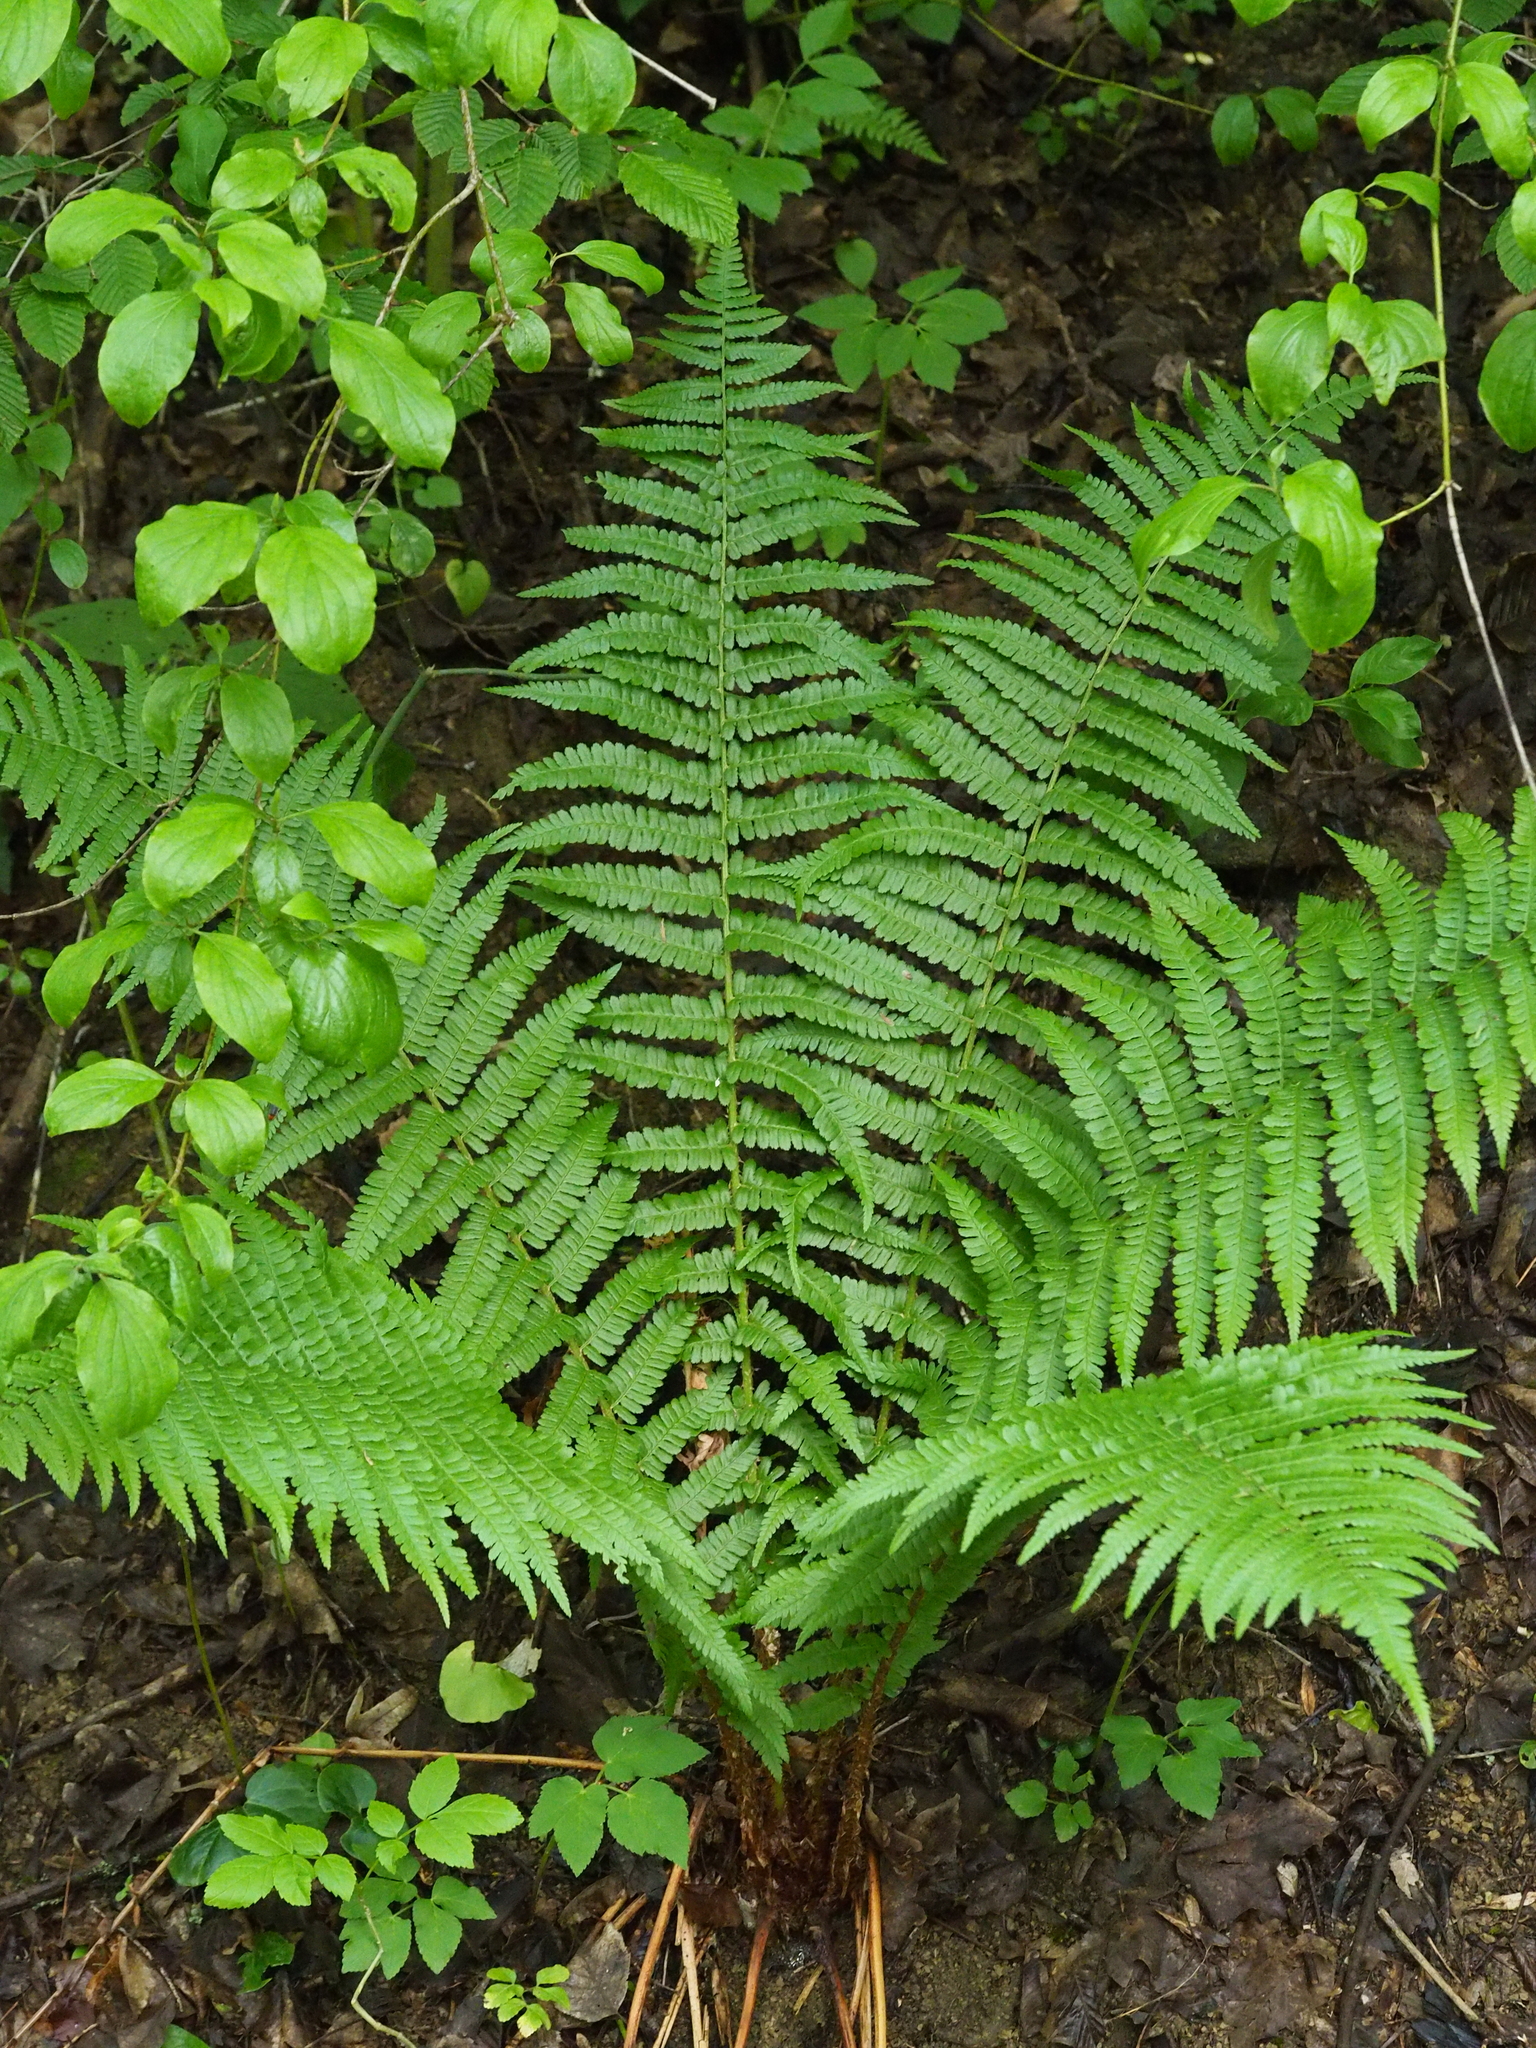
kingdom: Plantae
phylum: Tracheophyta
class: Polypodiopsida
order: Polypodiales
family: Dryopteridaceae
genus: Dryopteris
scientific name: Dryopteris filix-mas
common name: Male fern
